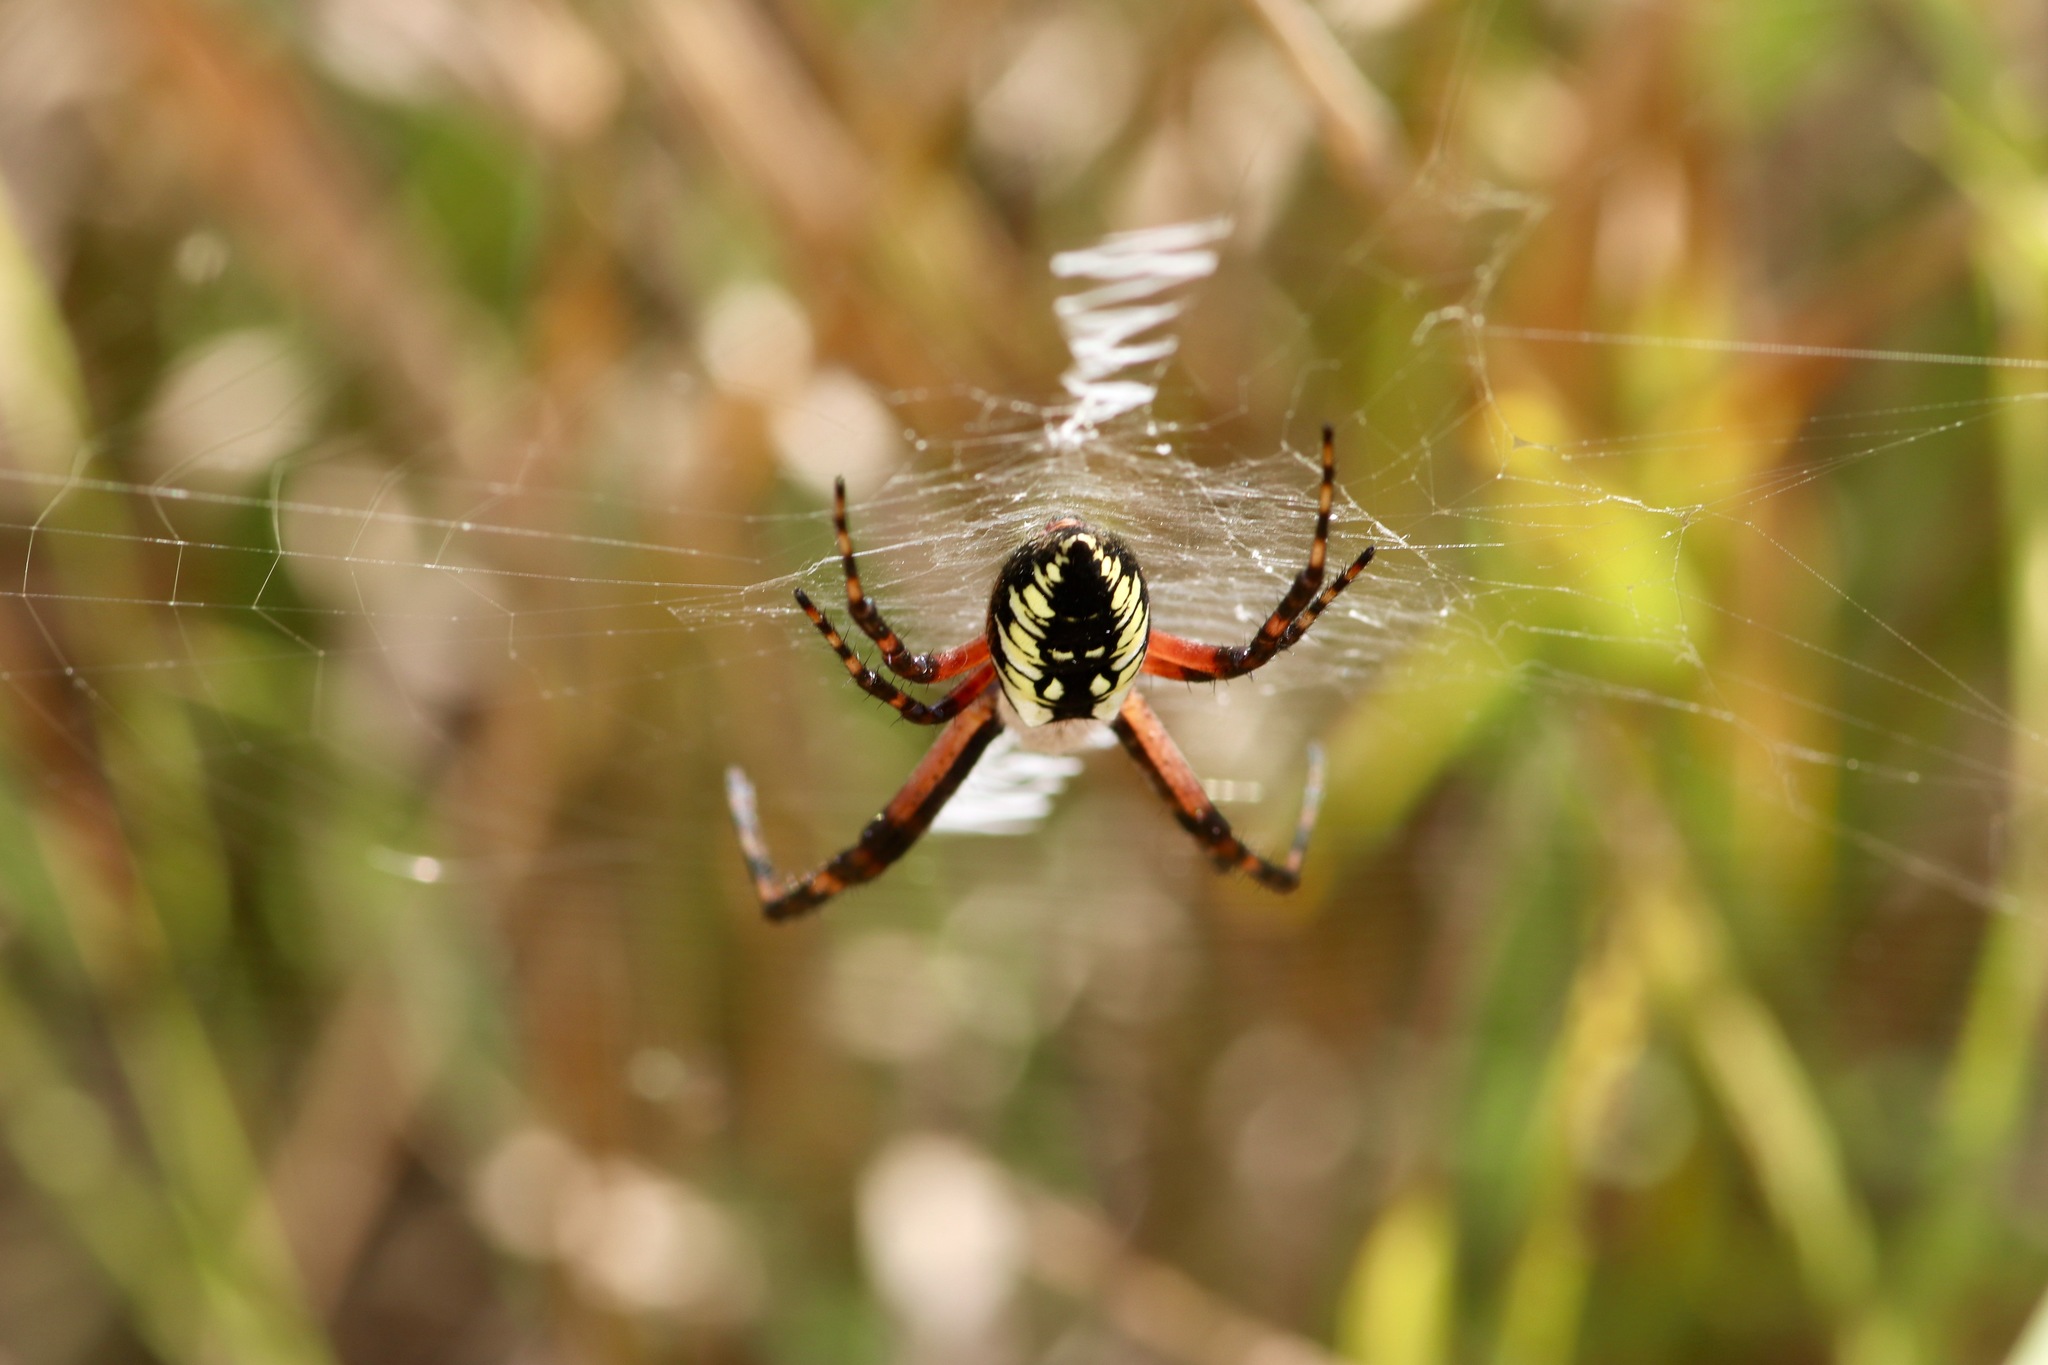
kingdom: Animalia
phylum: Arthropoda
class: Arachnida
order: Araneae
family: Araneidae
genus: Argiope
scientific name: Argiope aurantia
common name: Orb weavers
